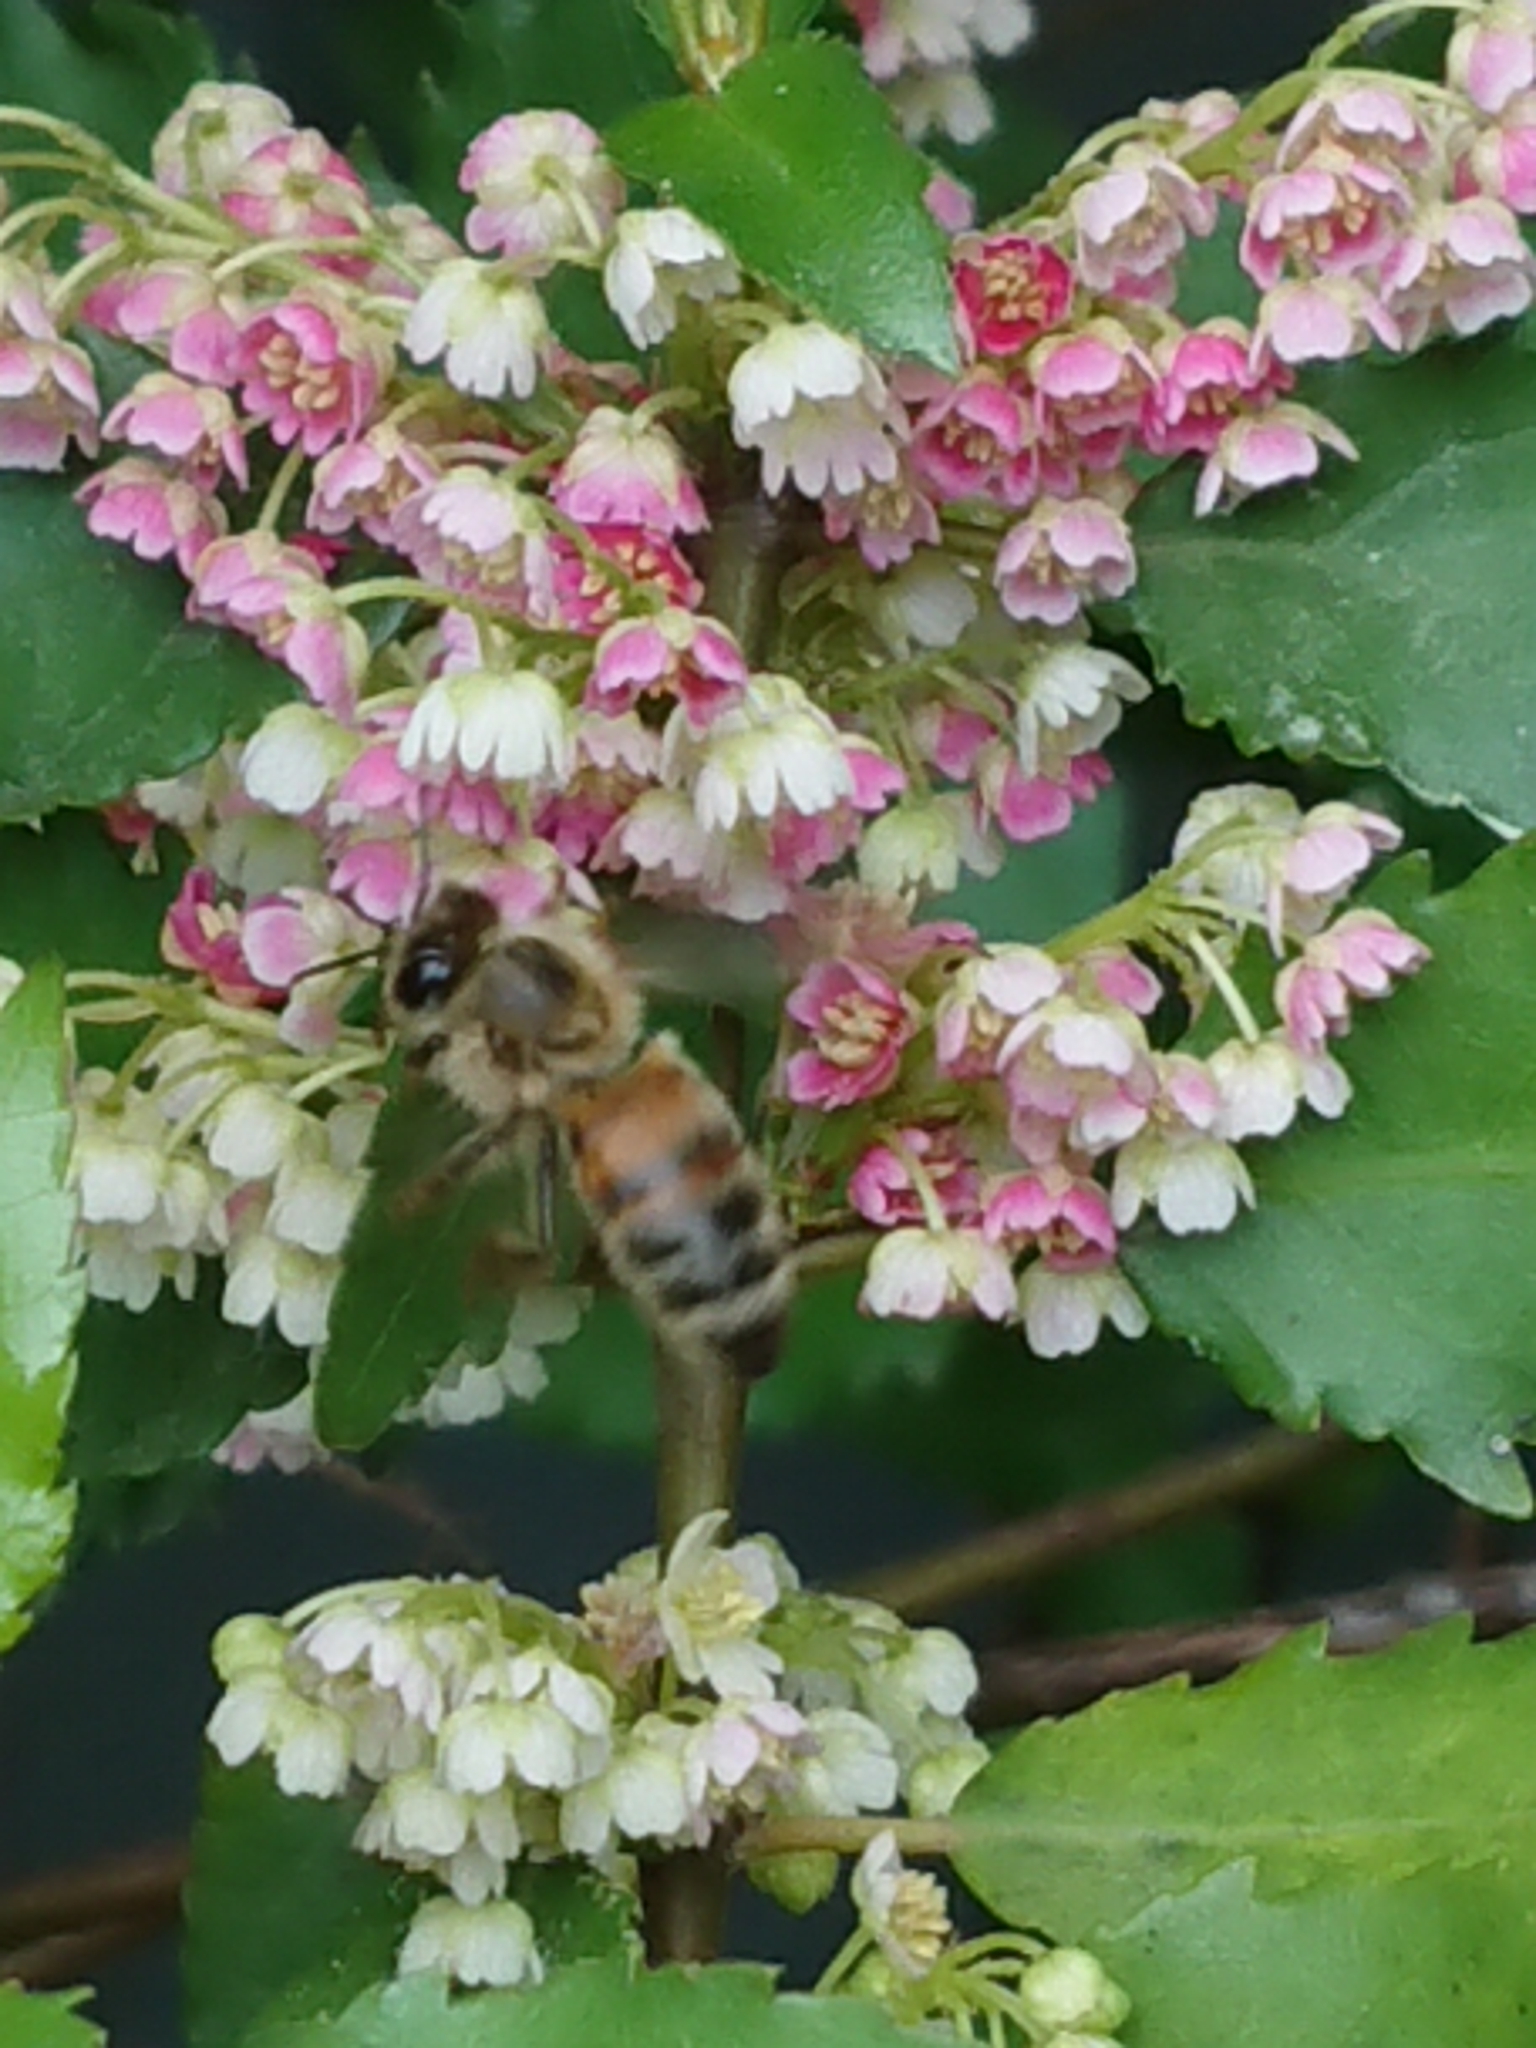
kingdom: Animalia
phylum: Arthropoda
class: Insecta
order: Hymenoptera
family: Apidae
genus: Apis
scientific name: Apis mellifera
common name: Honey bee
